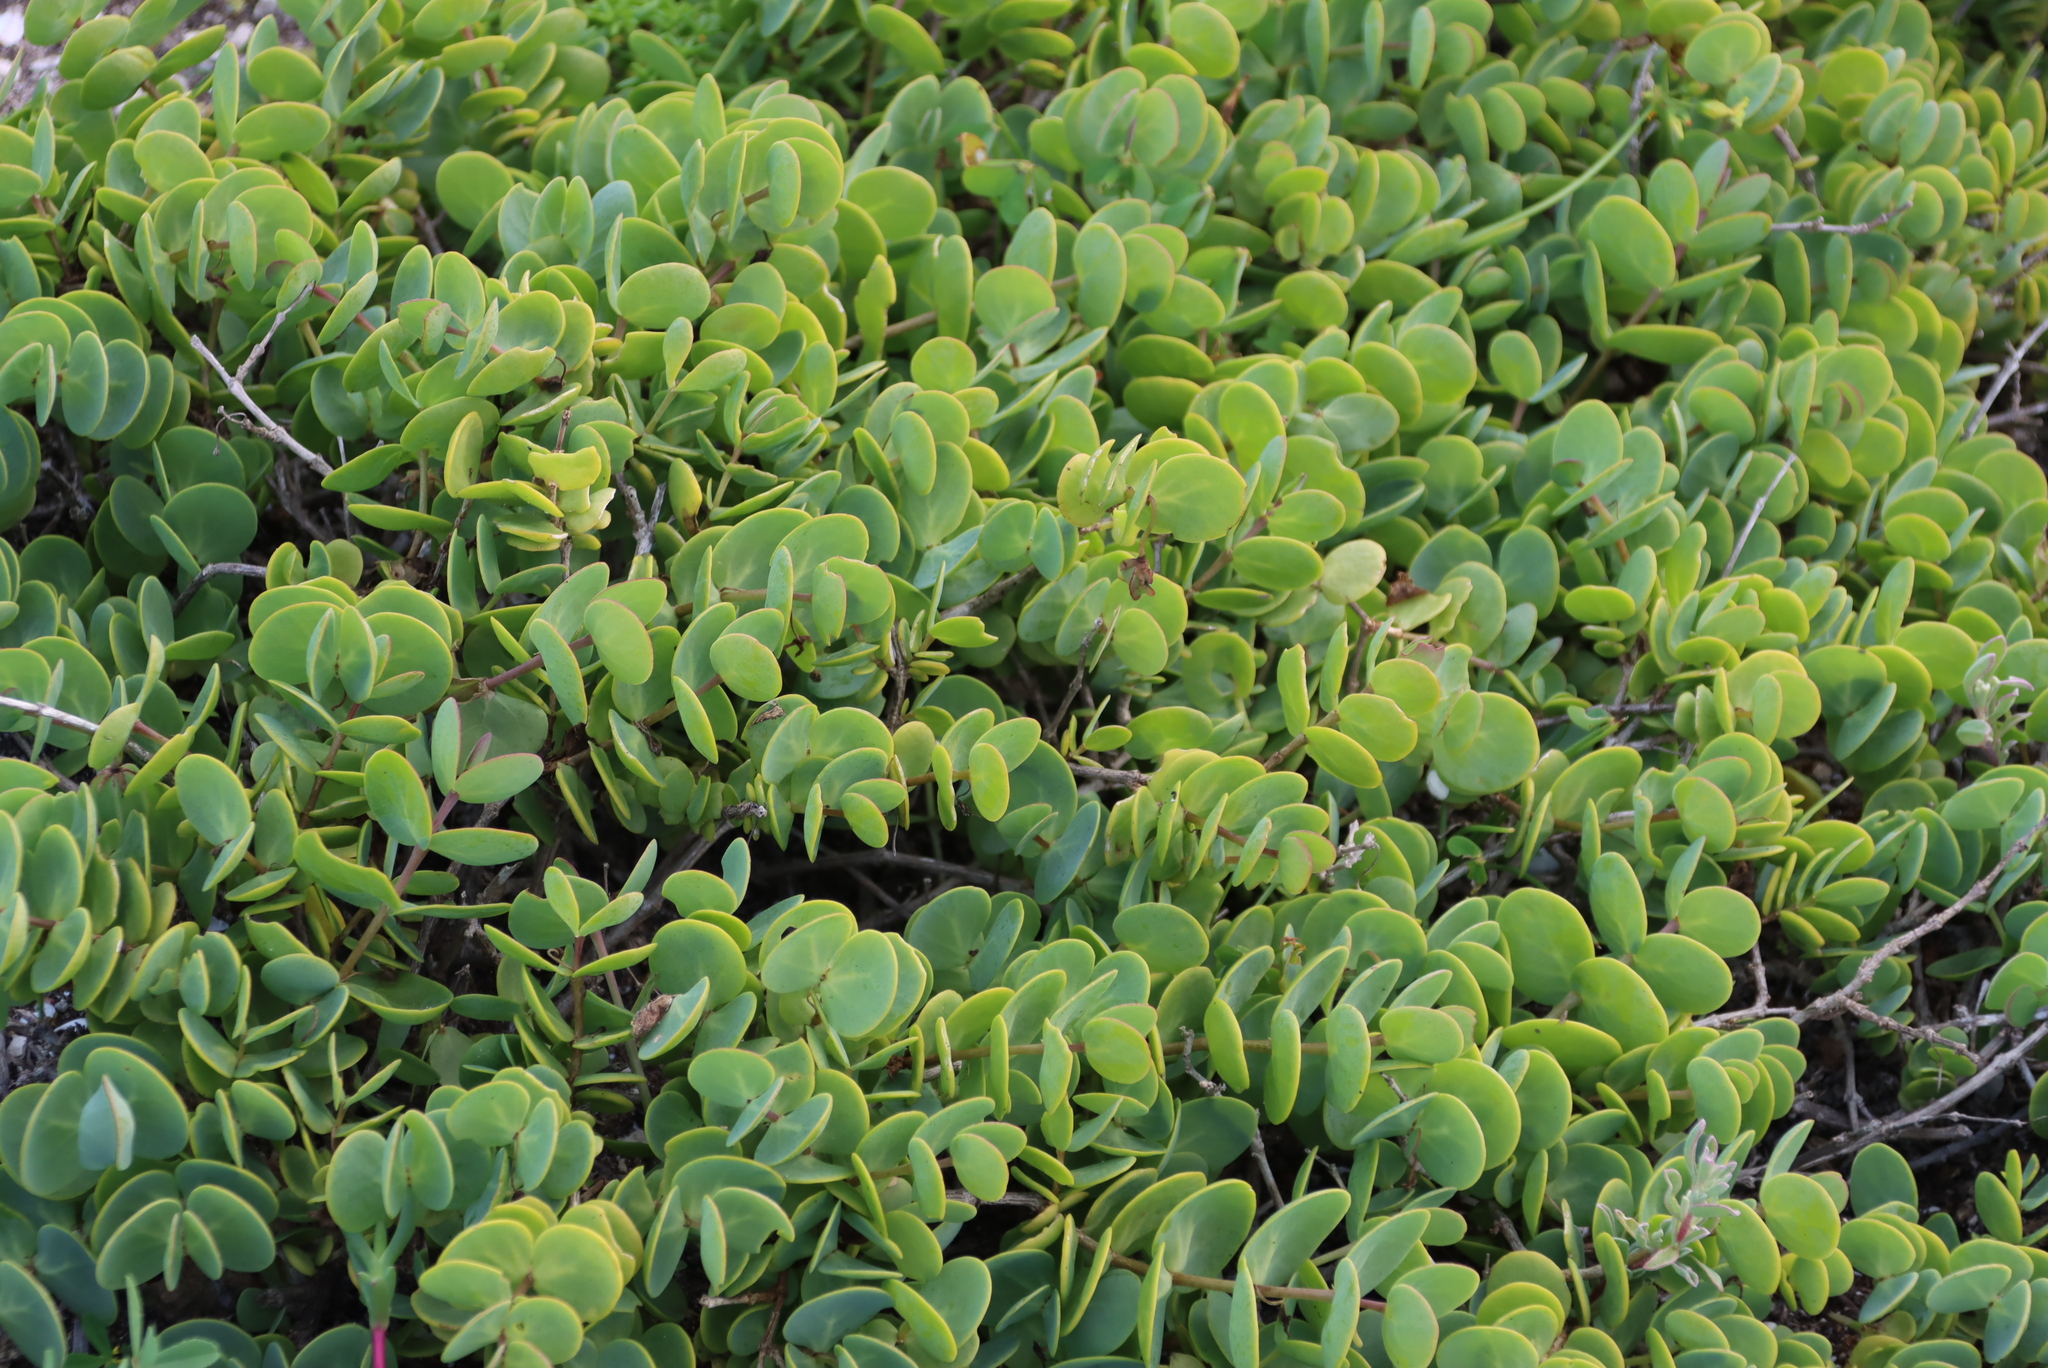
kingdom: Plantae
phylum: Tracheophyta
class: Magnoliopsida
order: Zygophyllales
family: Zygophyllaceae
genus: Roepera
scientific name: Roepera cordifolia
